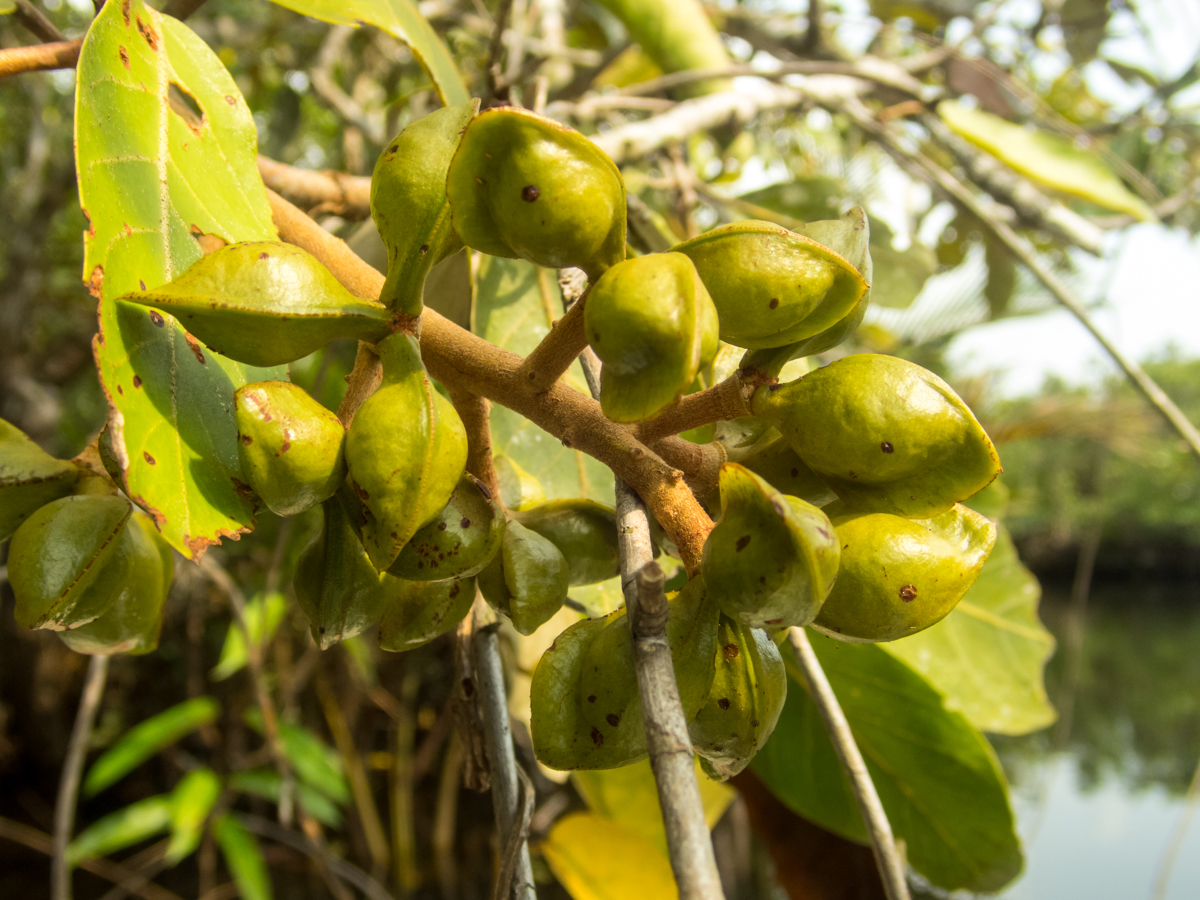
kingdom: Plantae
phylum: Tracheophyta
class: Magnoliopsida
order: Malvales
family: Malvaceae
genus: Heritiera
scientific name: Heritiera littoralis
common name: Looking-glass mangrove
